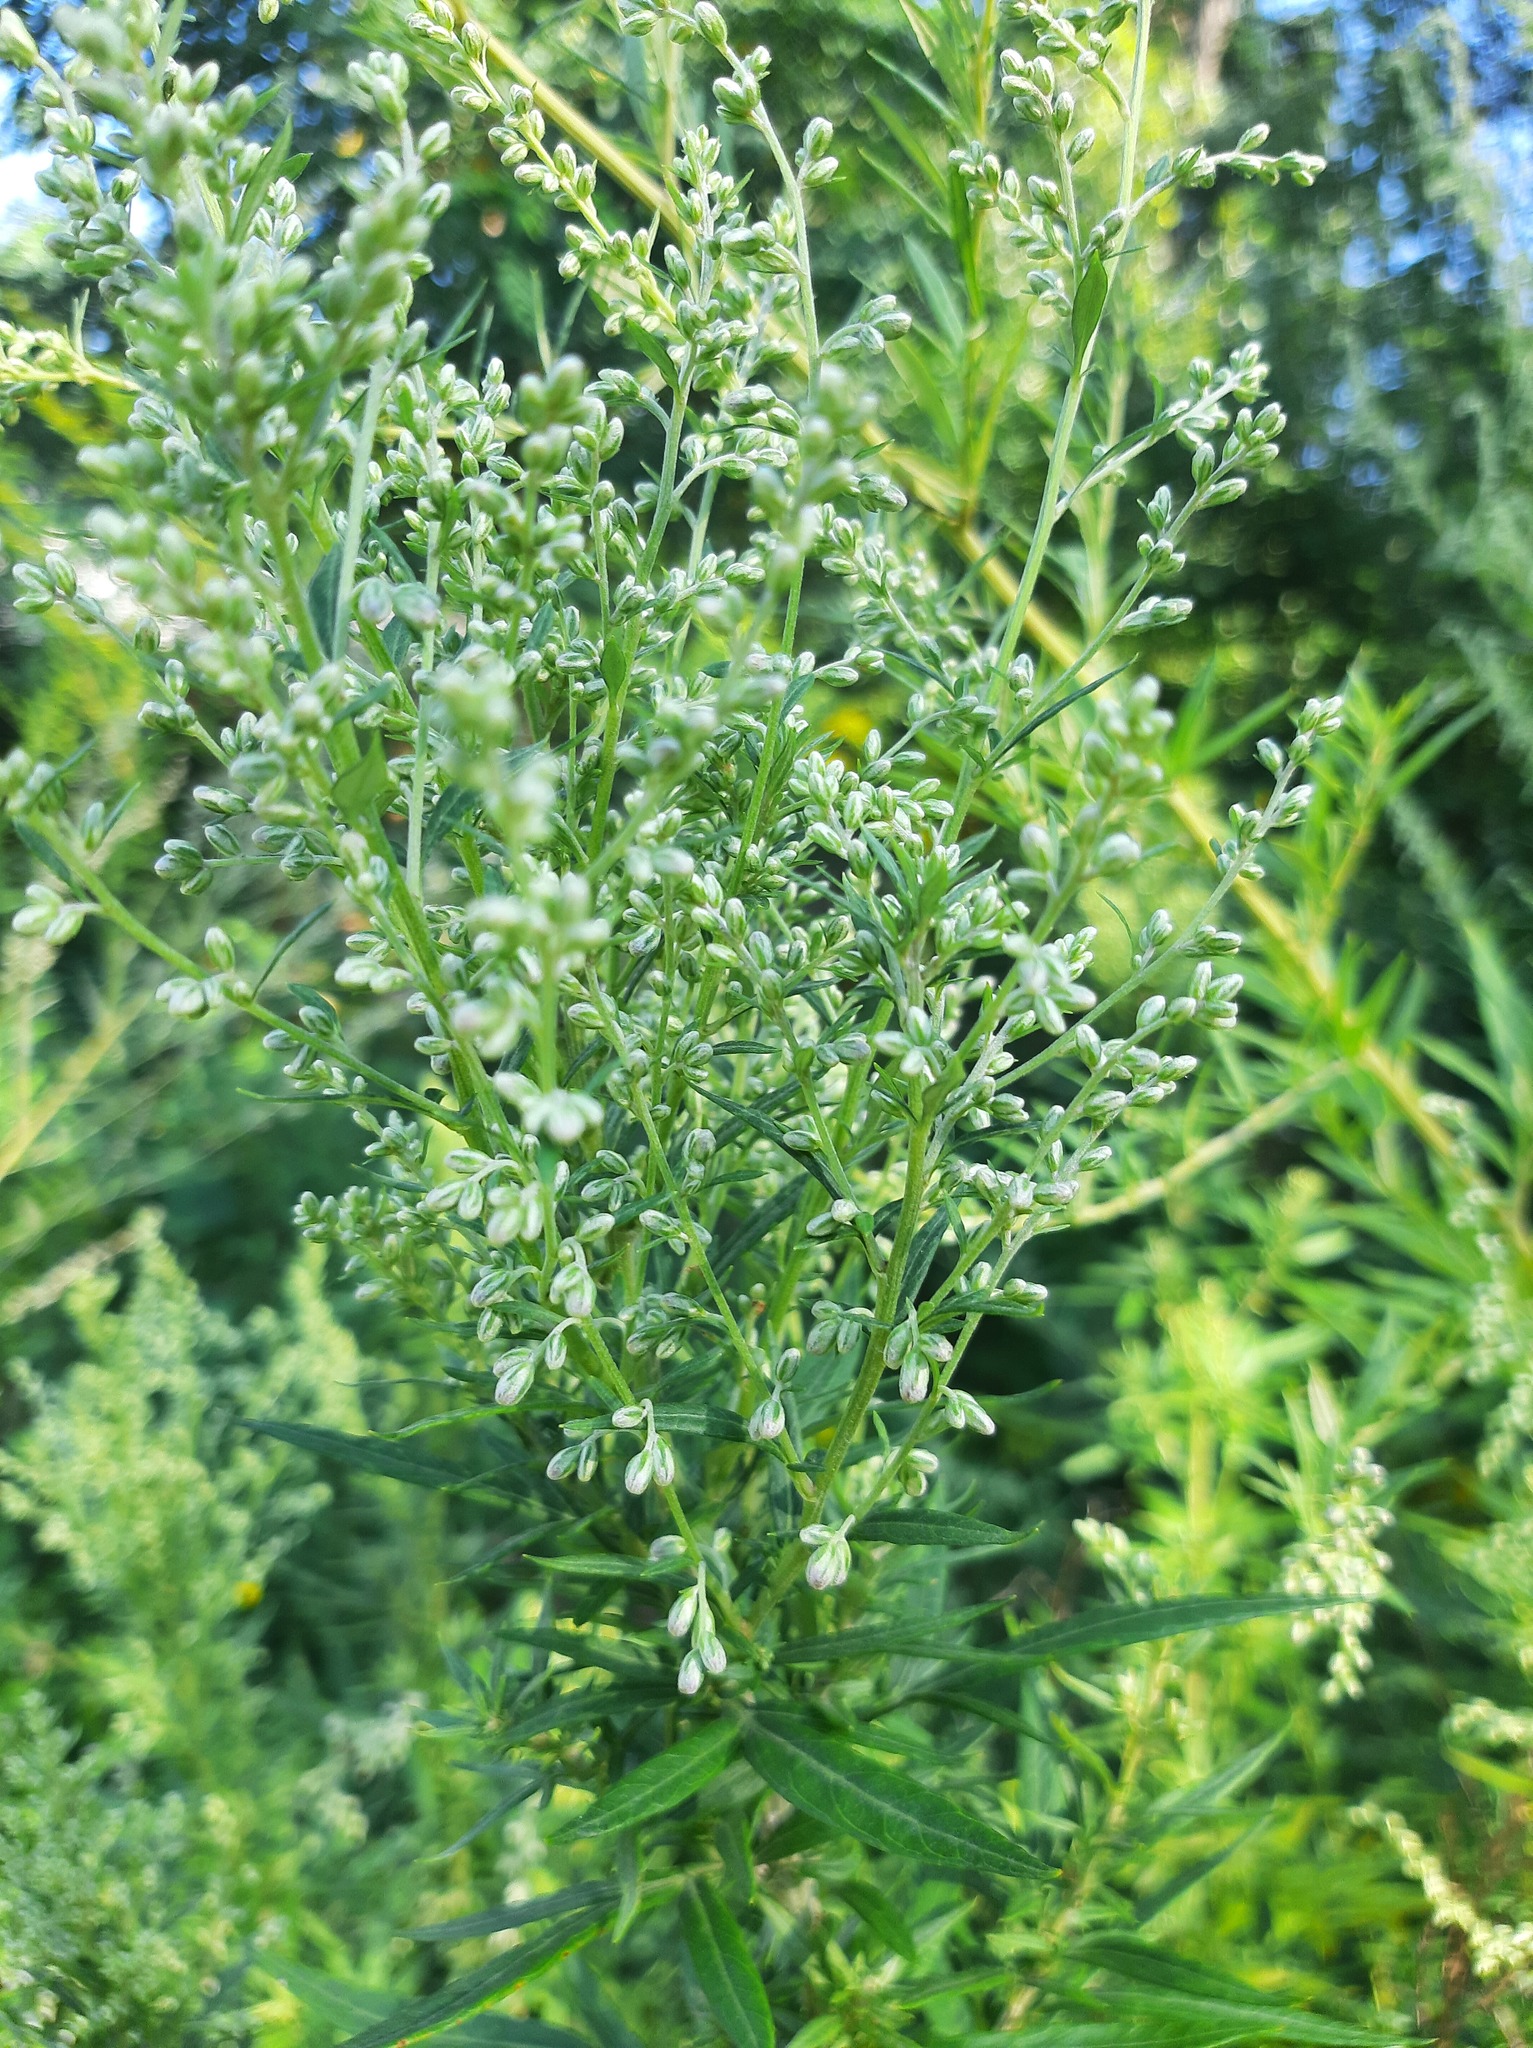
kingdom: Plantae
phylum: Tracheophyta
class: Magnoliopsida
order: Asterales
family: Asteraceae
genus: Artemisia
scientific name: Artemisia vulgaris
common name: Mugwort
